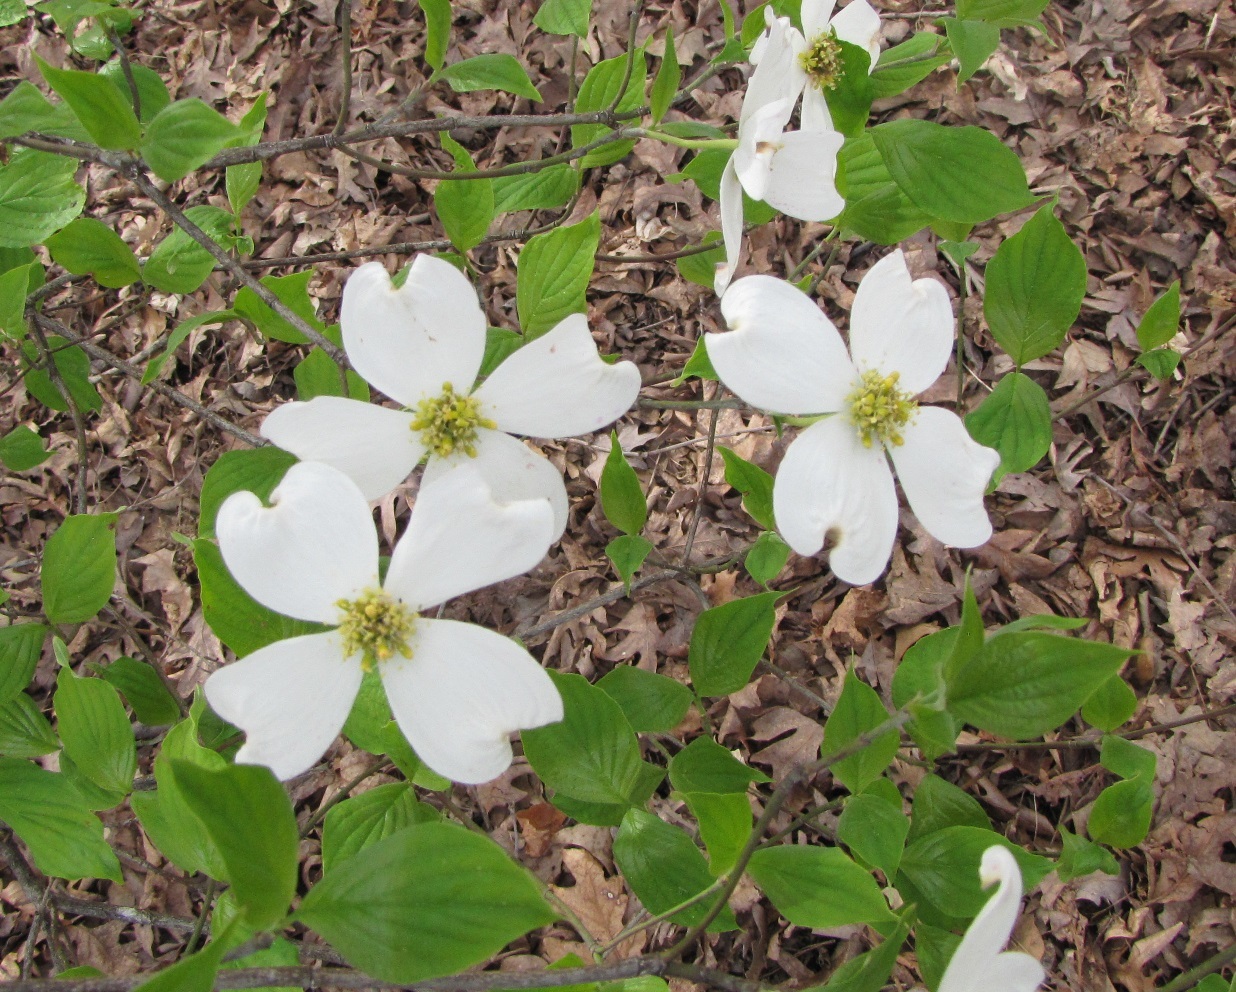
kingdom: Plantae
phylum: Tracheophyta
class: Magnoliopsida
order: Cornales
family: Cornaceae
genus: Cornus
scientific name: Cornus florida
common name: Flowering dogwood
